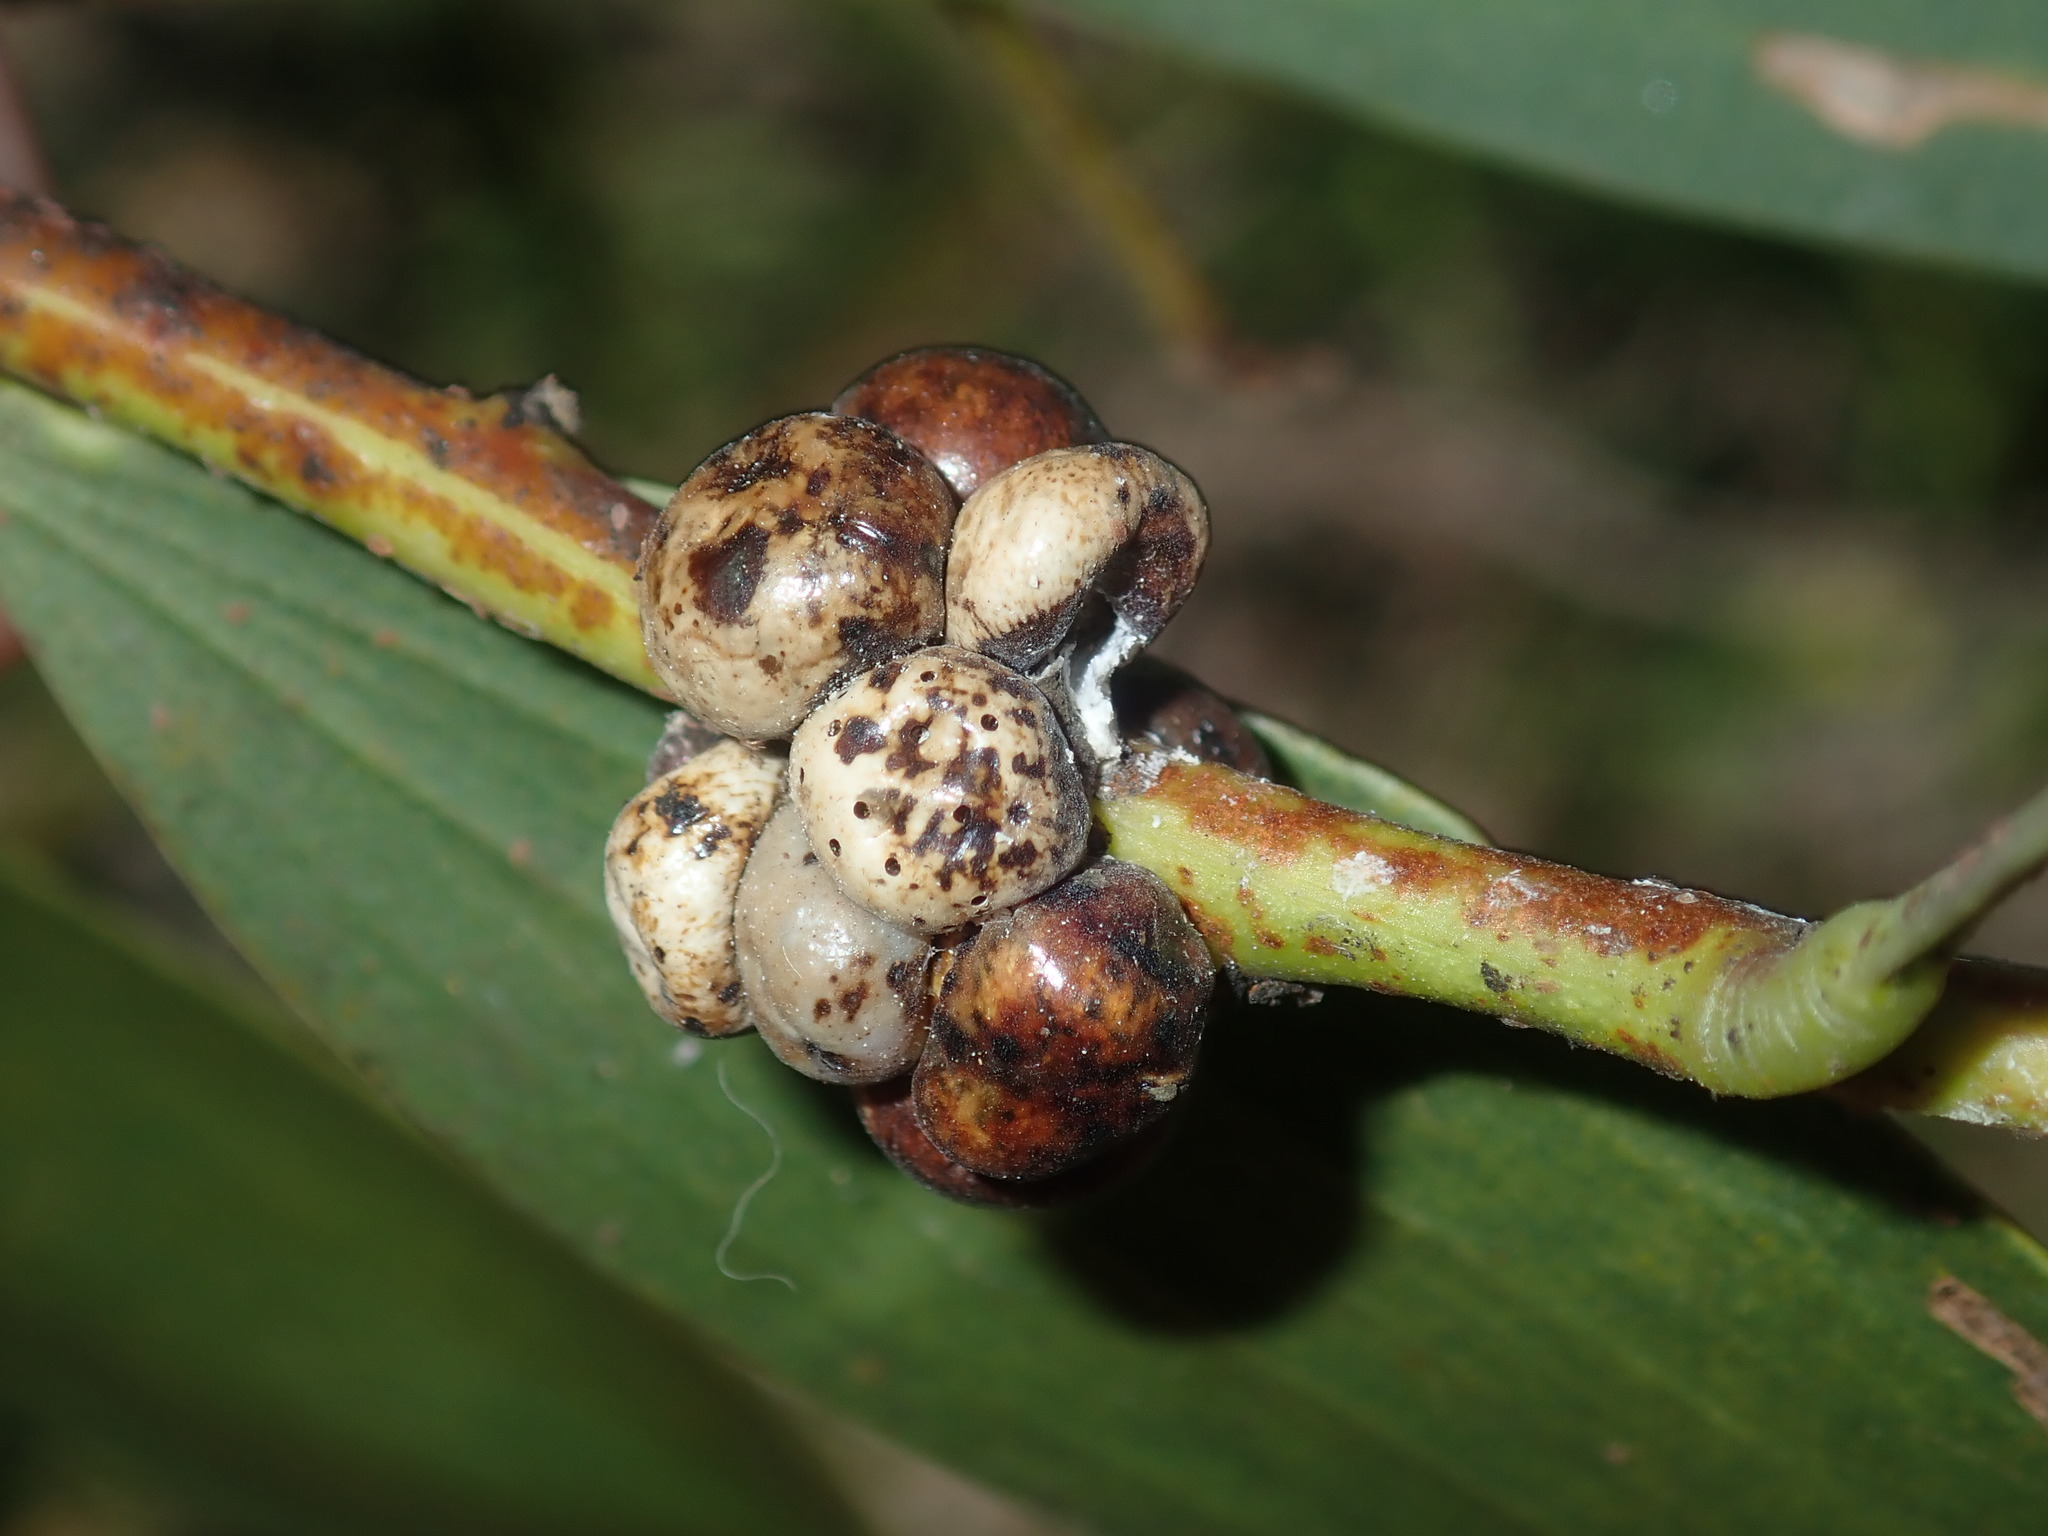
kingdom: Animalia
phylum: Arthropoda
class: Insecta
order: Hemiptera
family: Coccidae
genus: Cryptes
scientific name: Cryptes baccatus
